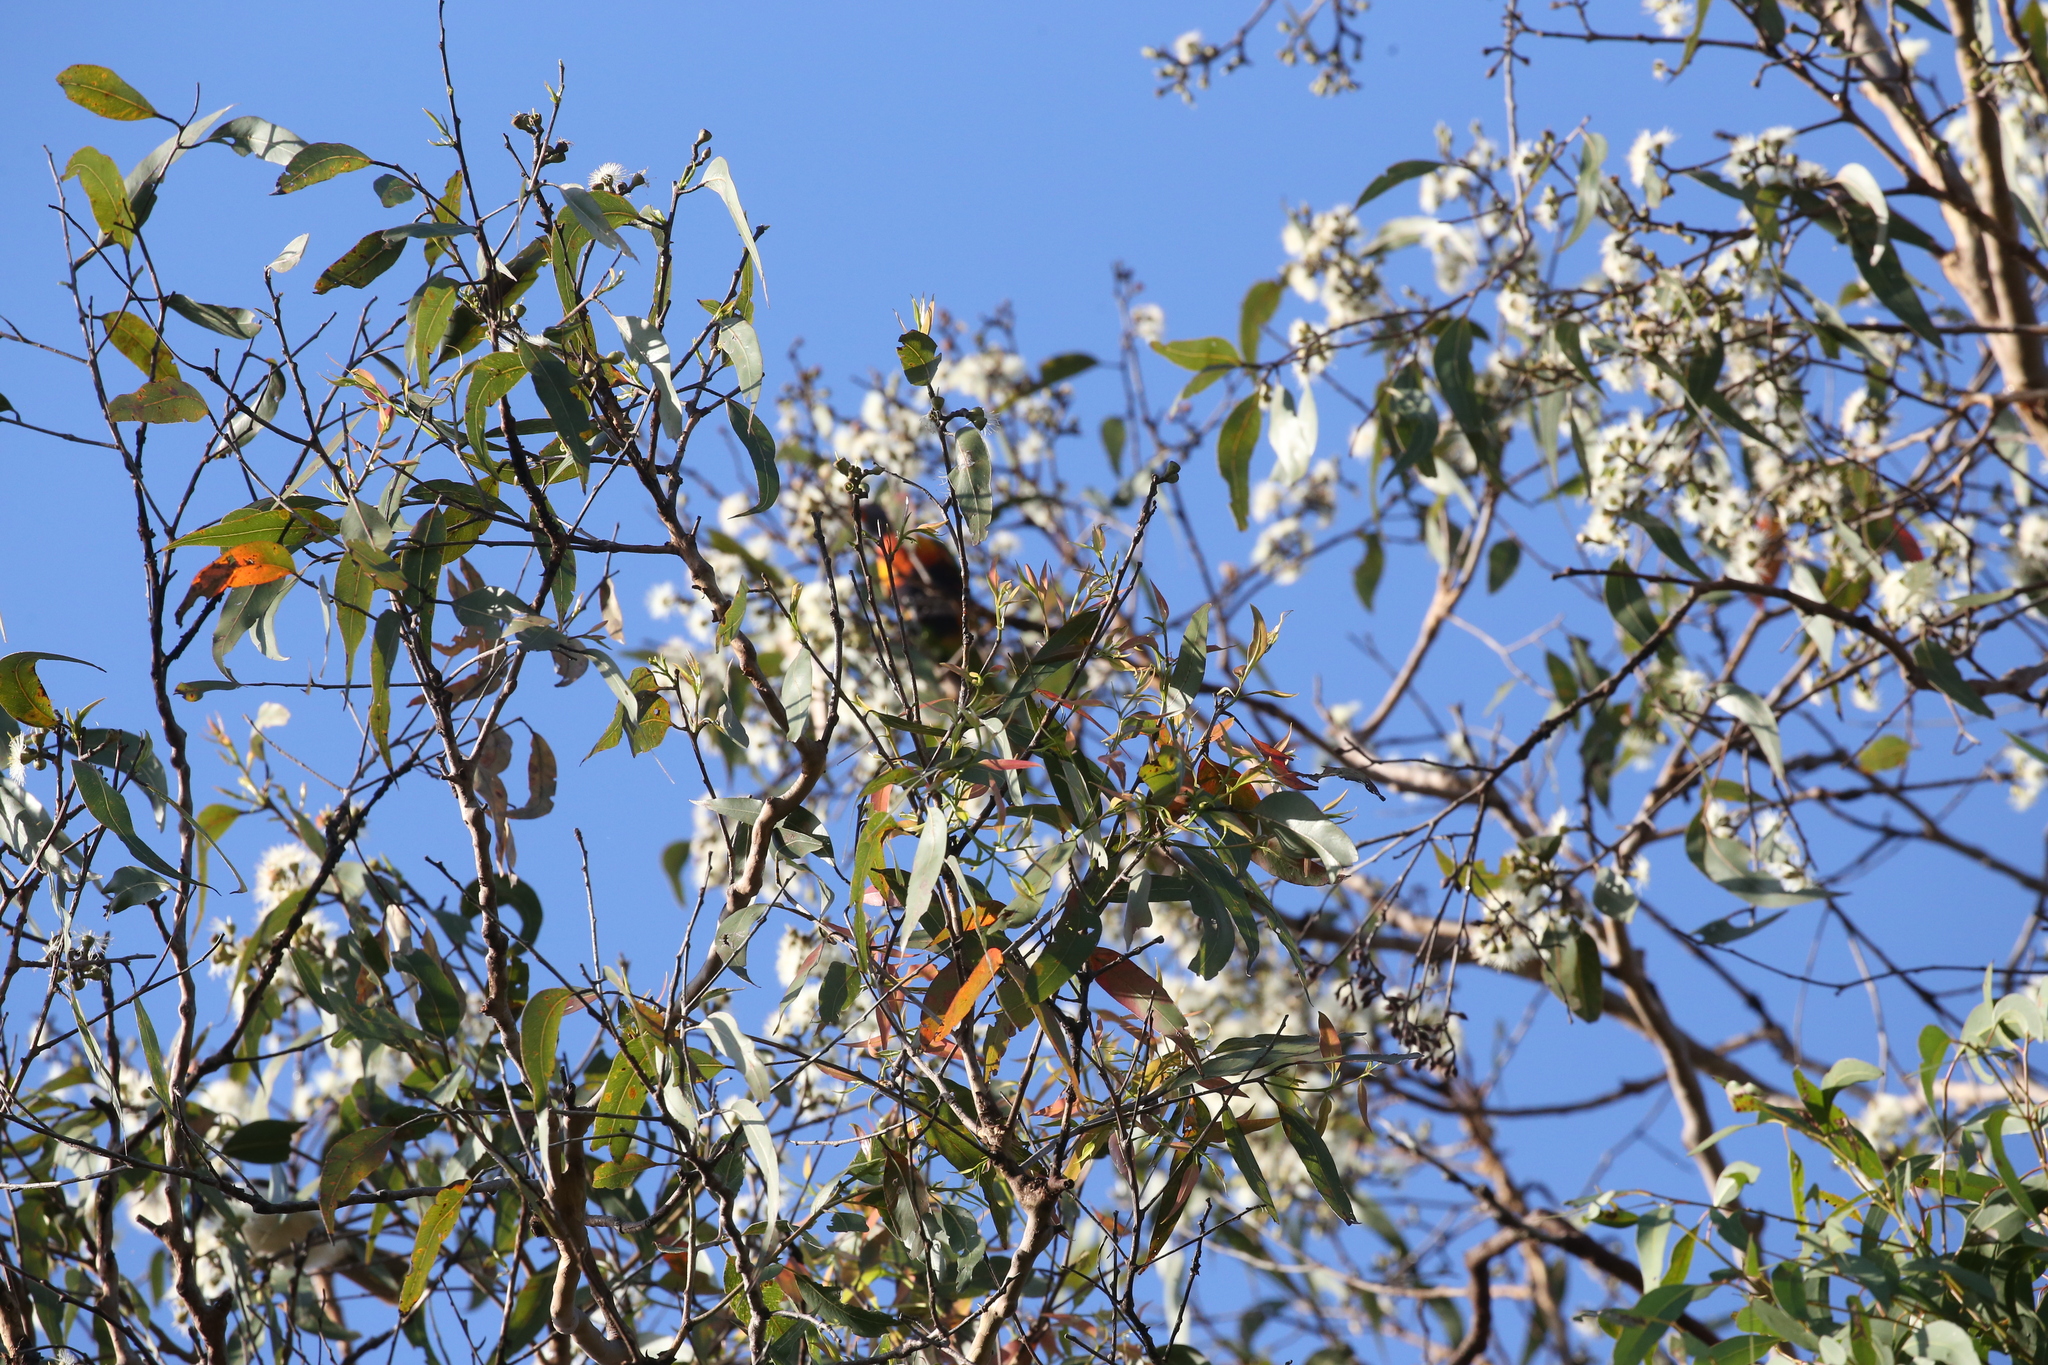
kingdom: Animalia
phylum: Chordata
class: Aves
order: Psittaciformes
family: Psittacidae
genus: Trichoglossus
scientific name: Trichoglossus haematodus
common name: Coconut lorikeet
